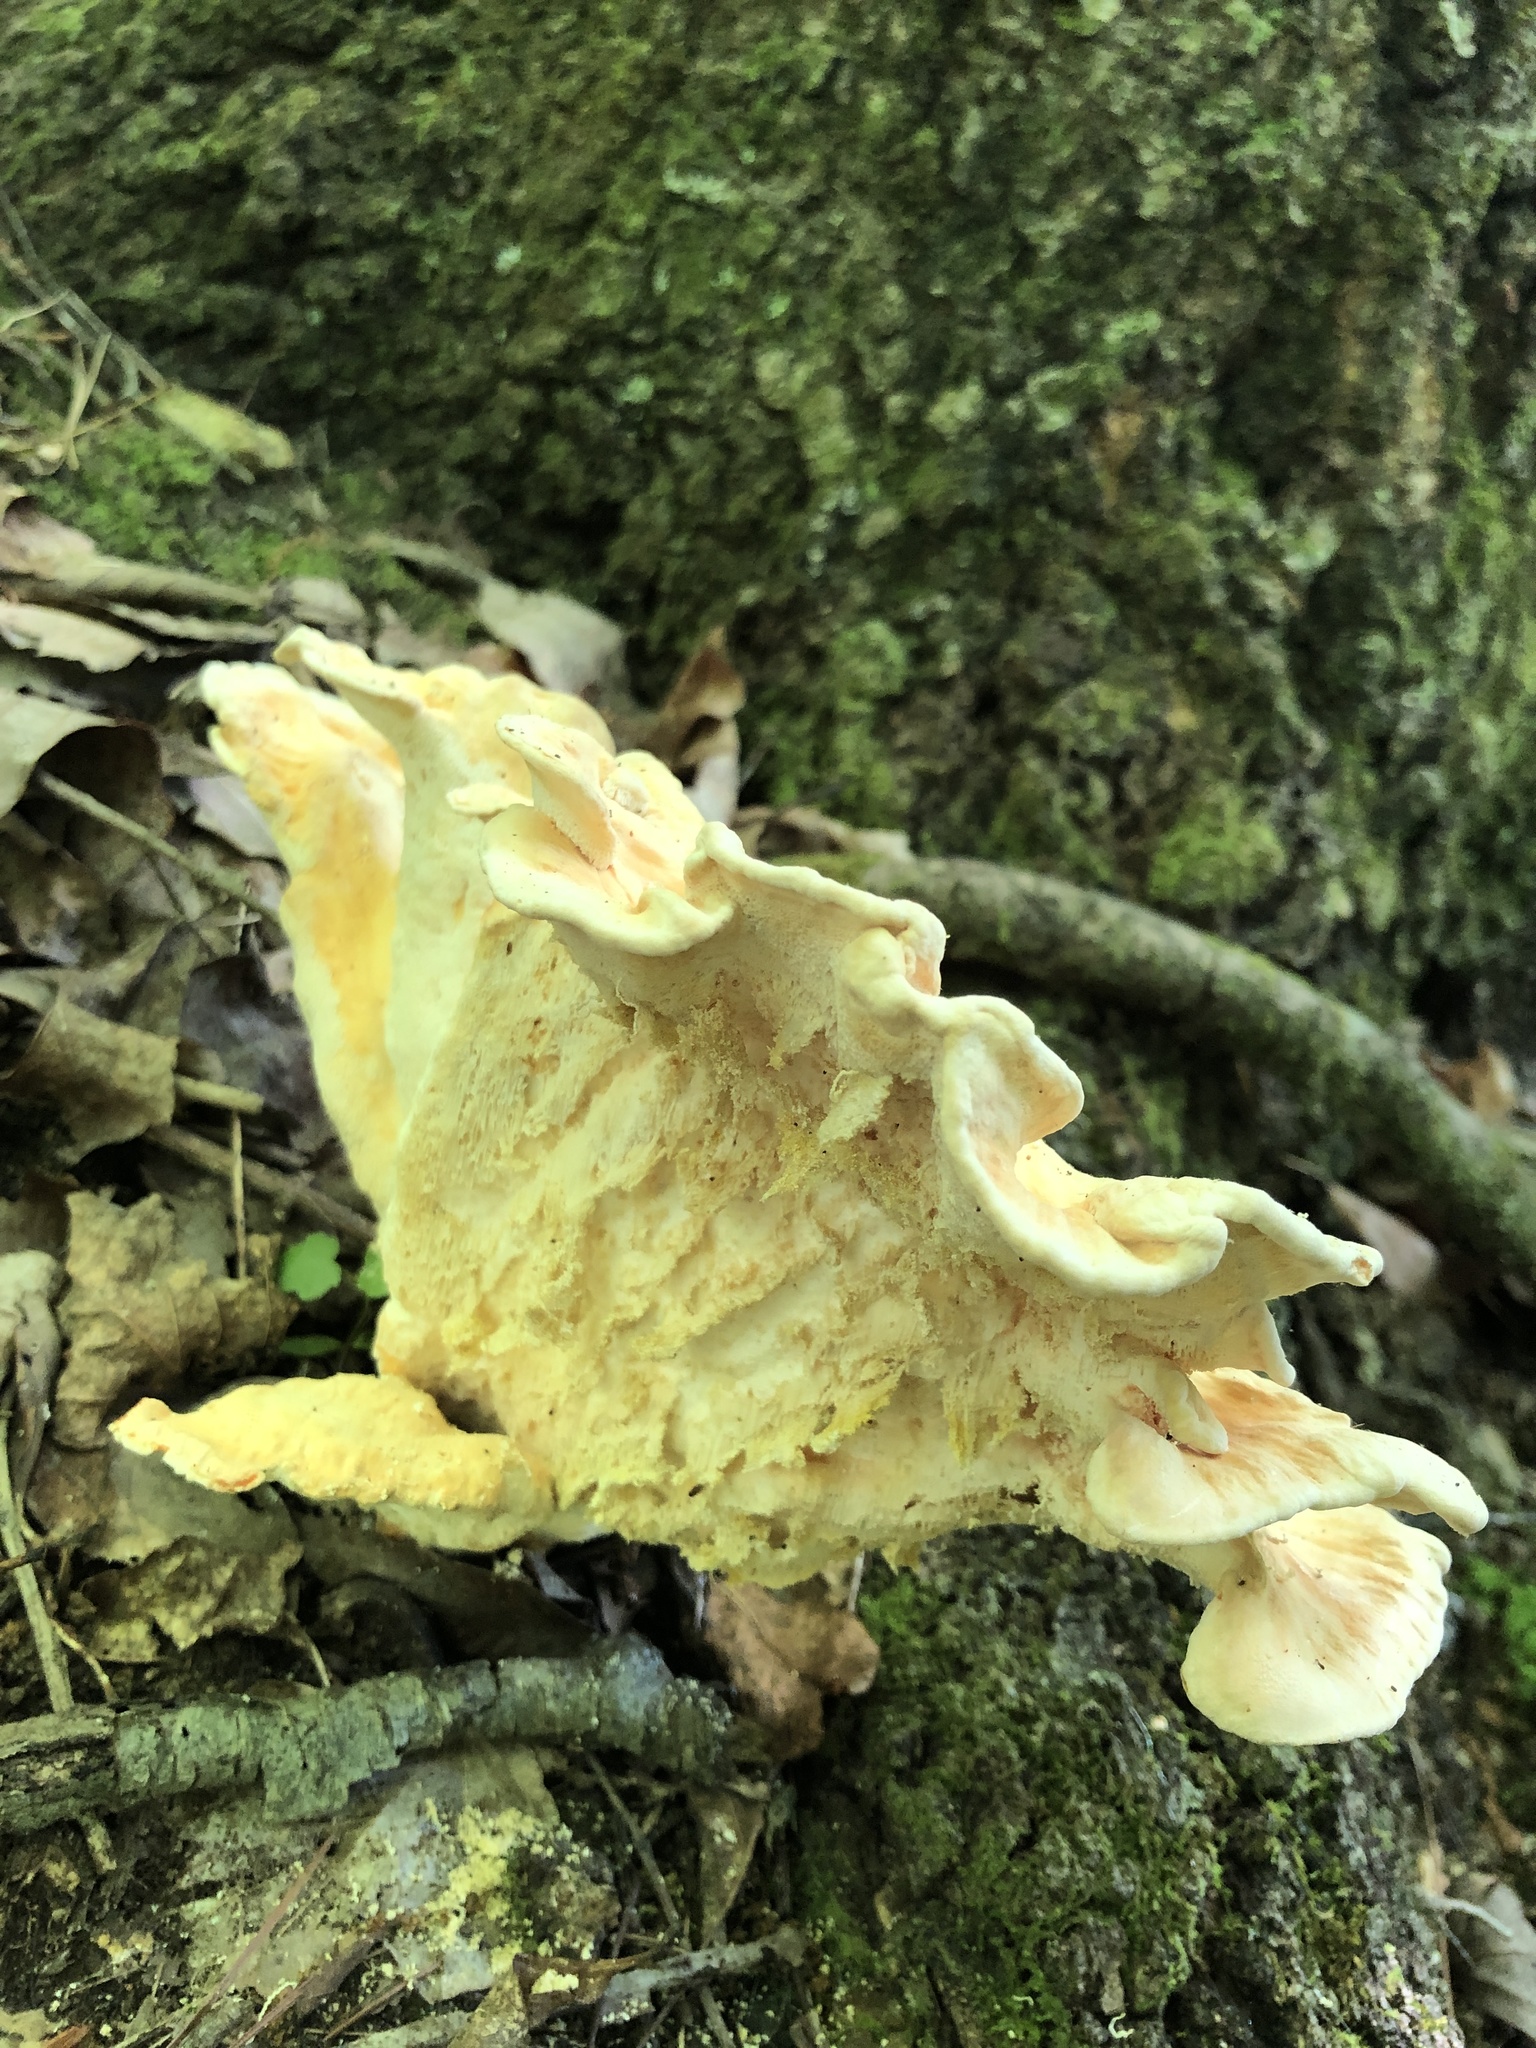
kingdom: Fungi
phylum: Basidiomycota
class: Agaricomycetes
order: Polyporales
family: Laetiporaceae
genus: Laetiporus
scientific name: Laetiporus sulphureus
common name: Chicken of the woods
